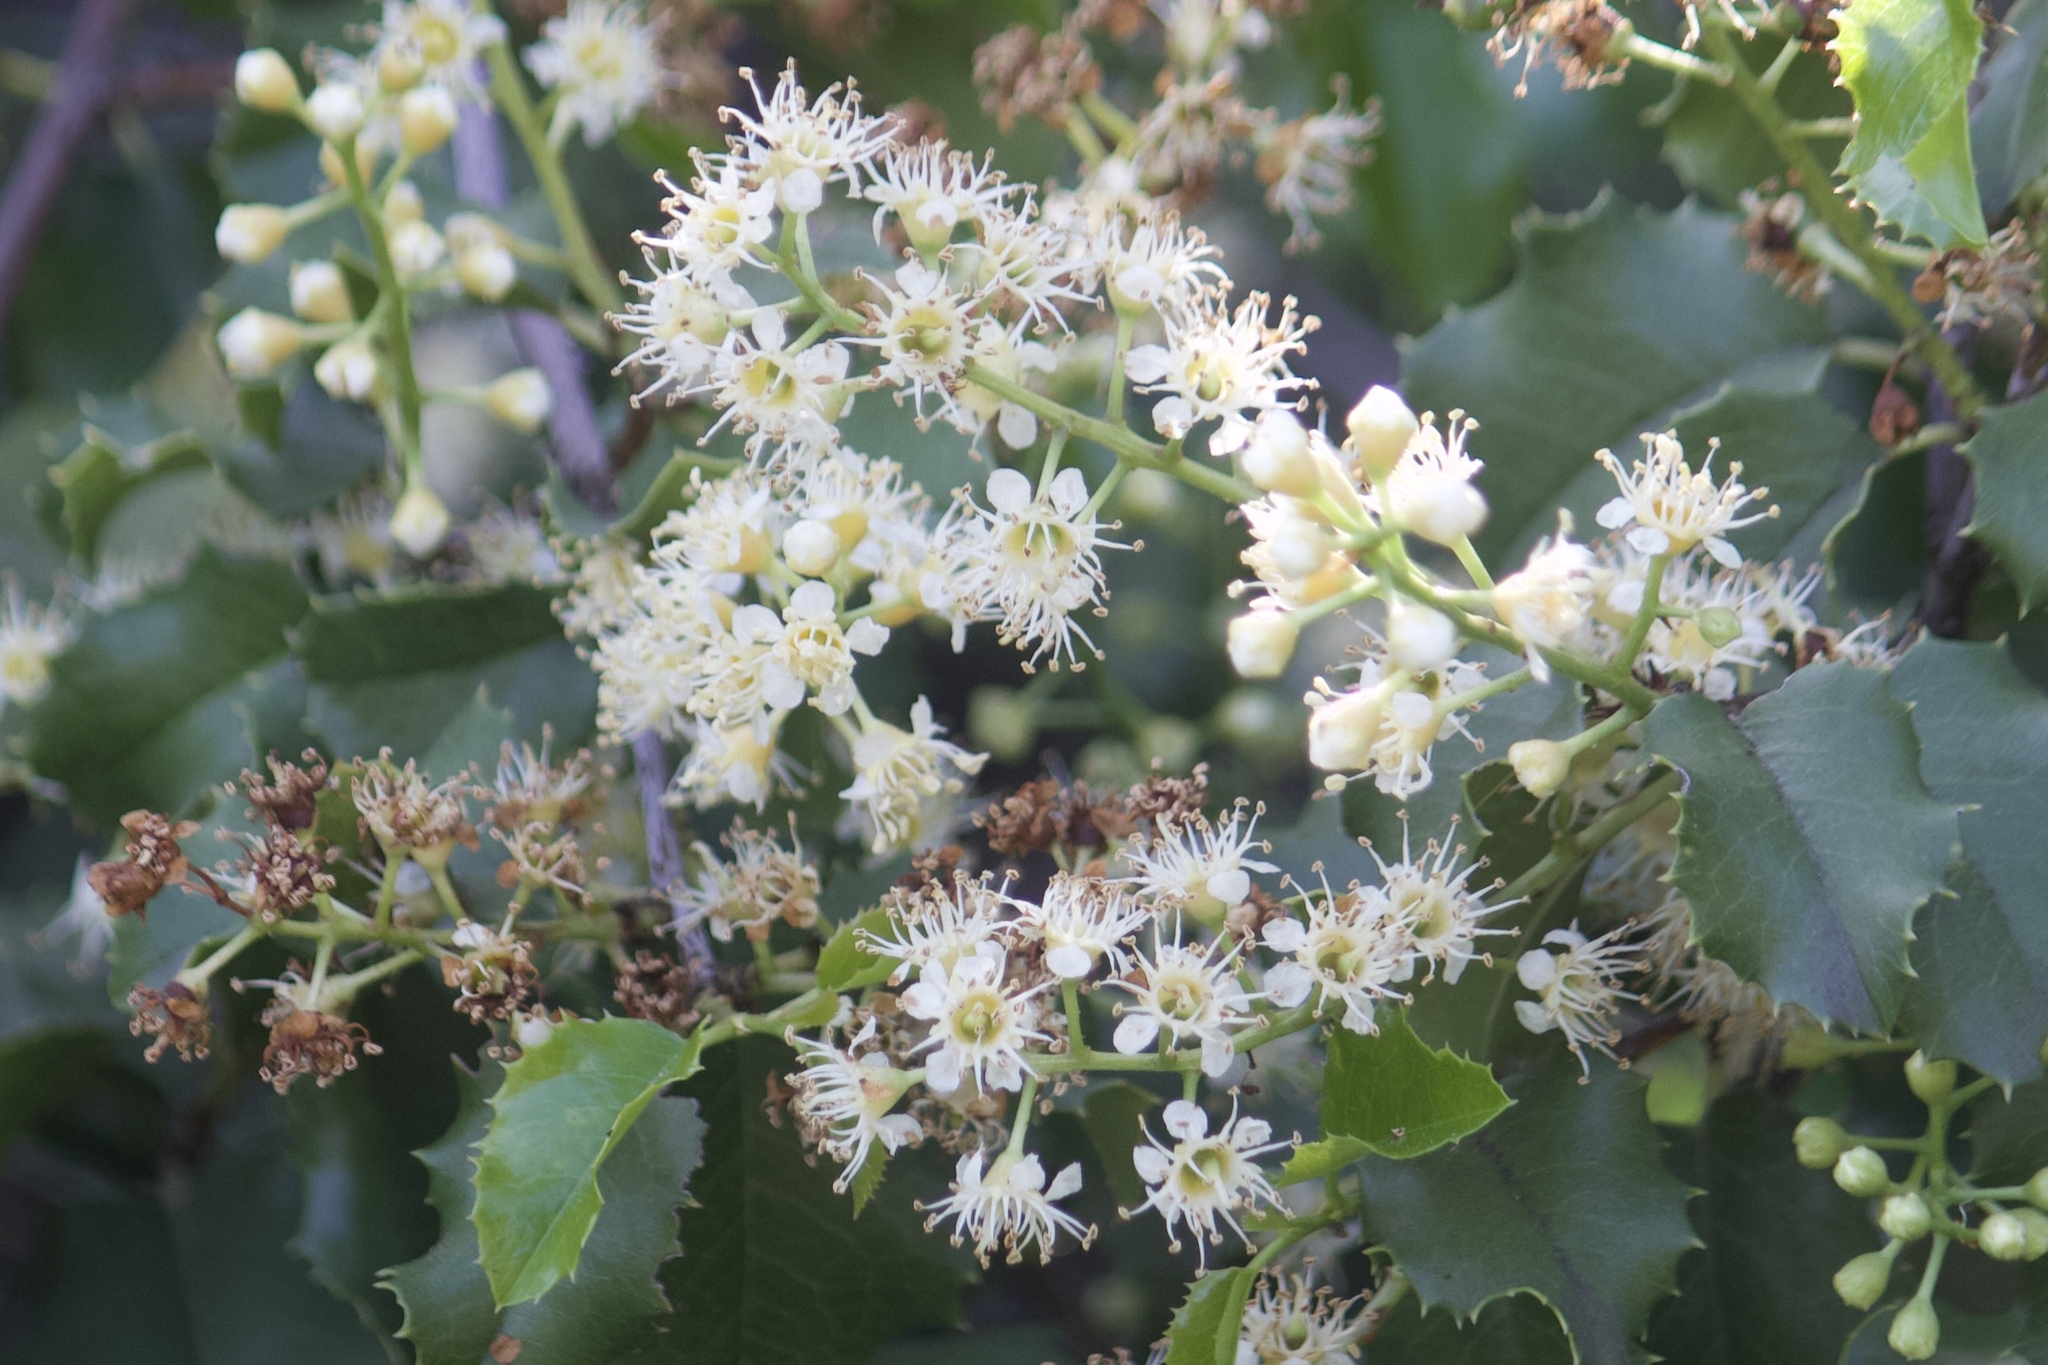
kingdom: Plantae
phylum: Tracheophyta
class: Magnoliopsida
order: Rosales
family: Rosaceae
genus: Prunus
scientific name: Prunus ilicifolia
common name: Hollyleaf cherry
